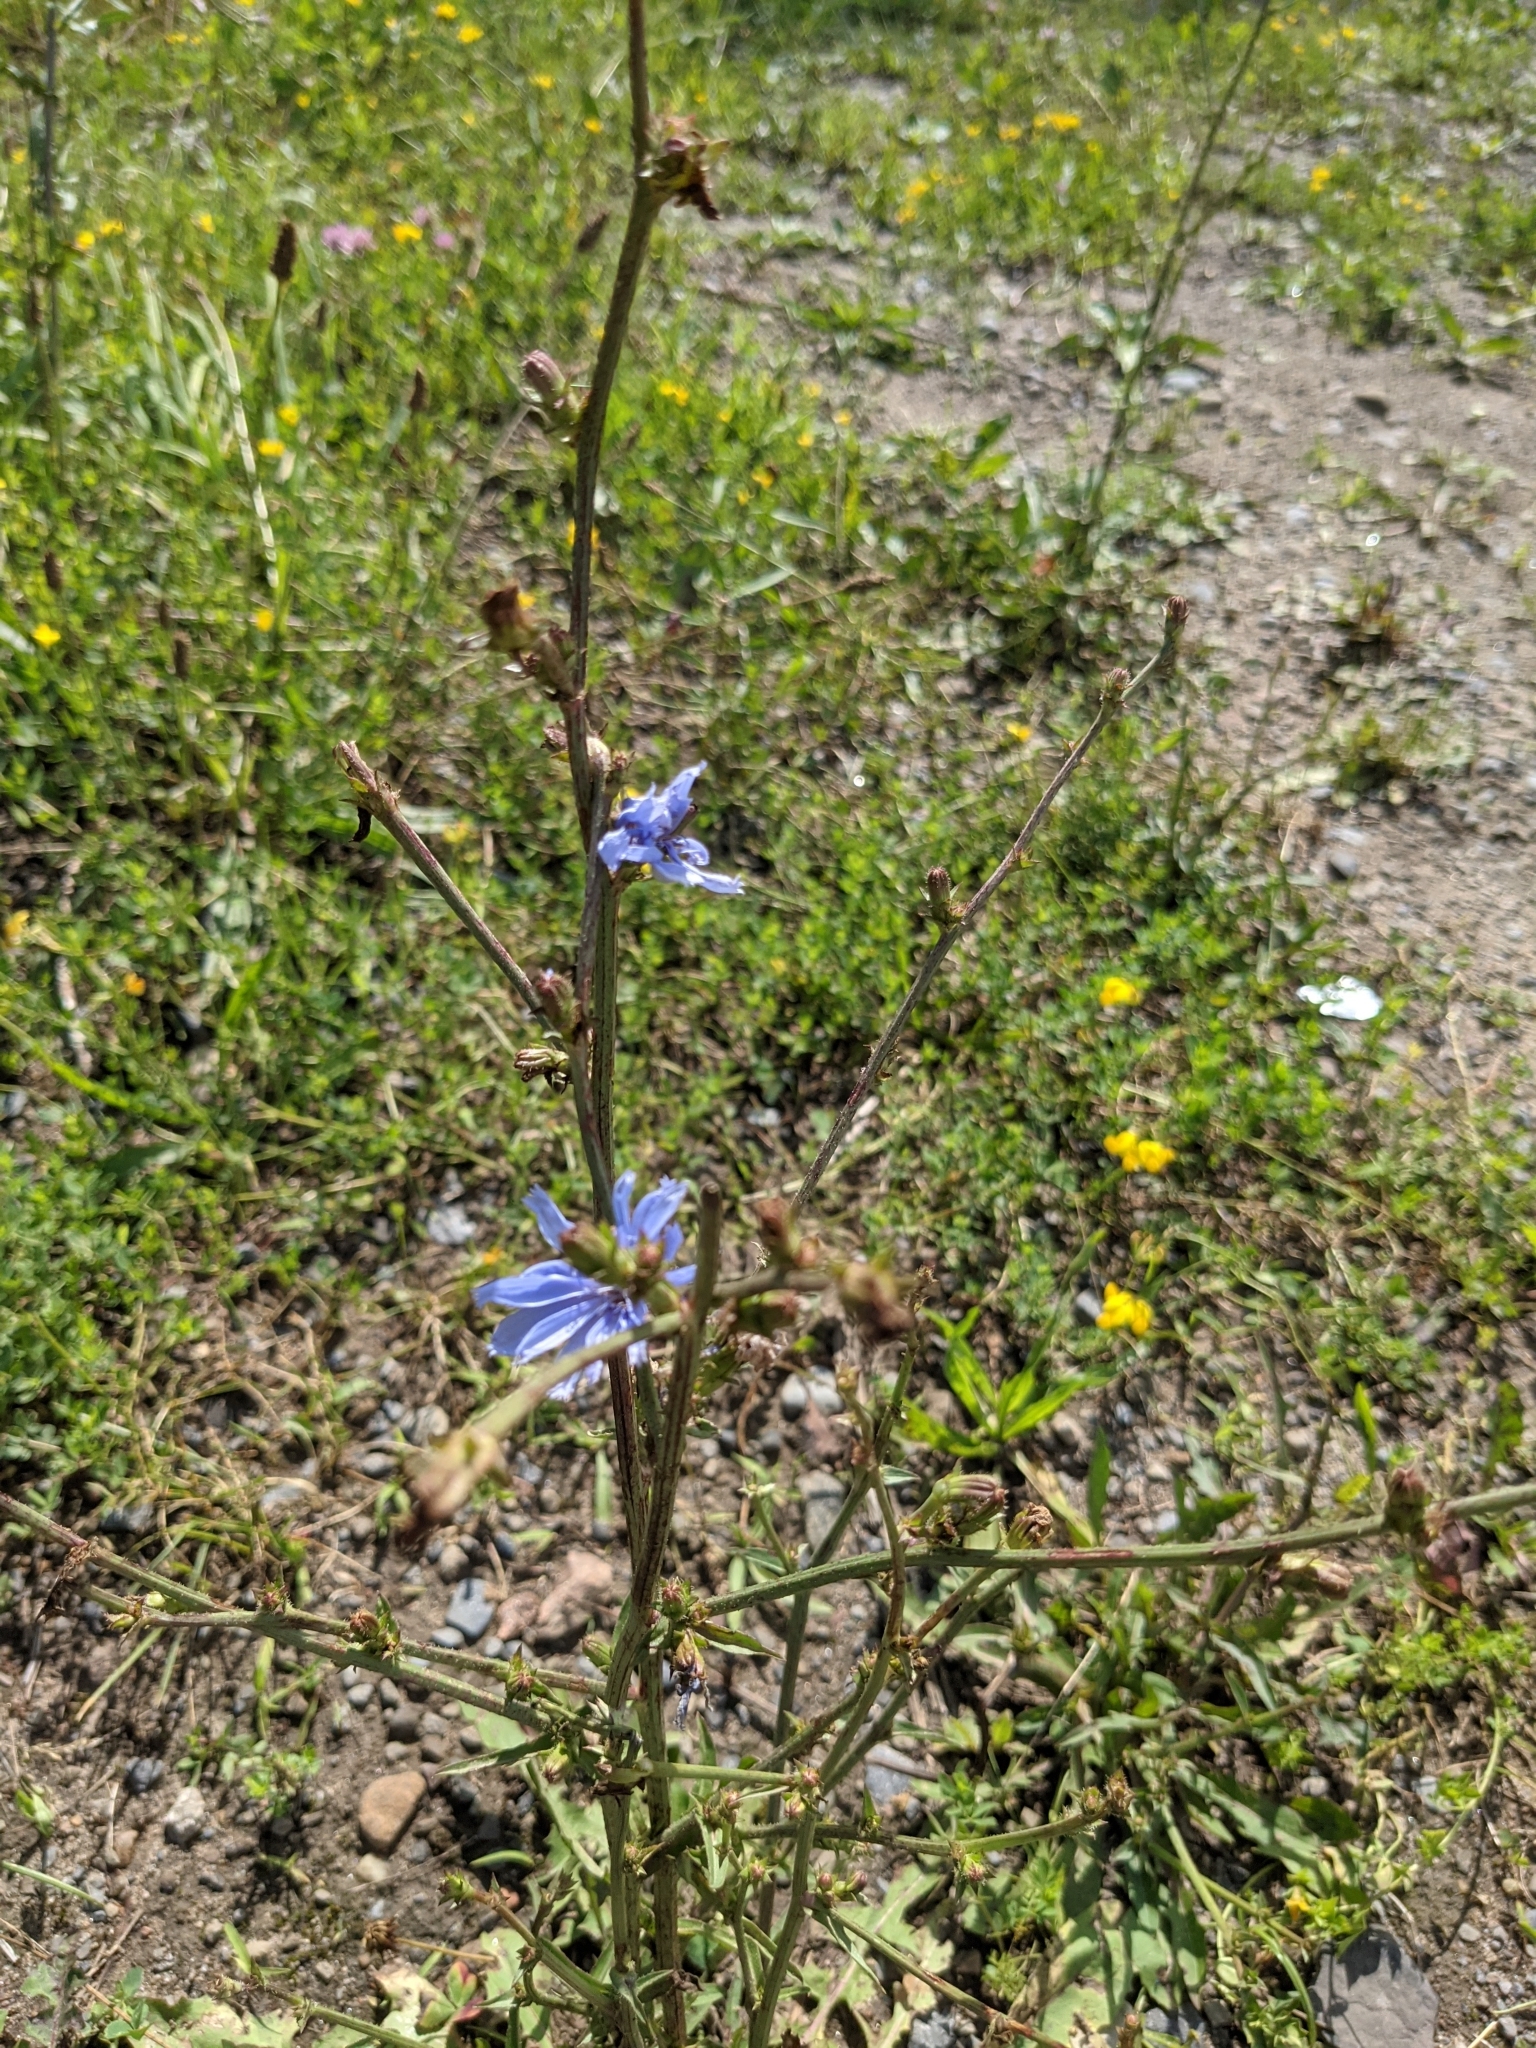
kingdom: Plantae
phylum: Tracheophyta
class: Magnoliopsida
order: Asterales
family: Asteraceae
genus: Cichorium
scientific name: Cichorium intybus
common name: Chicory
